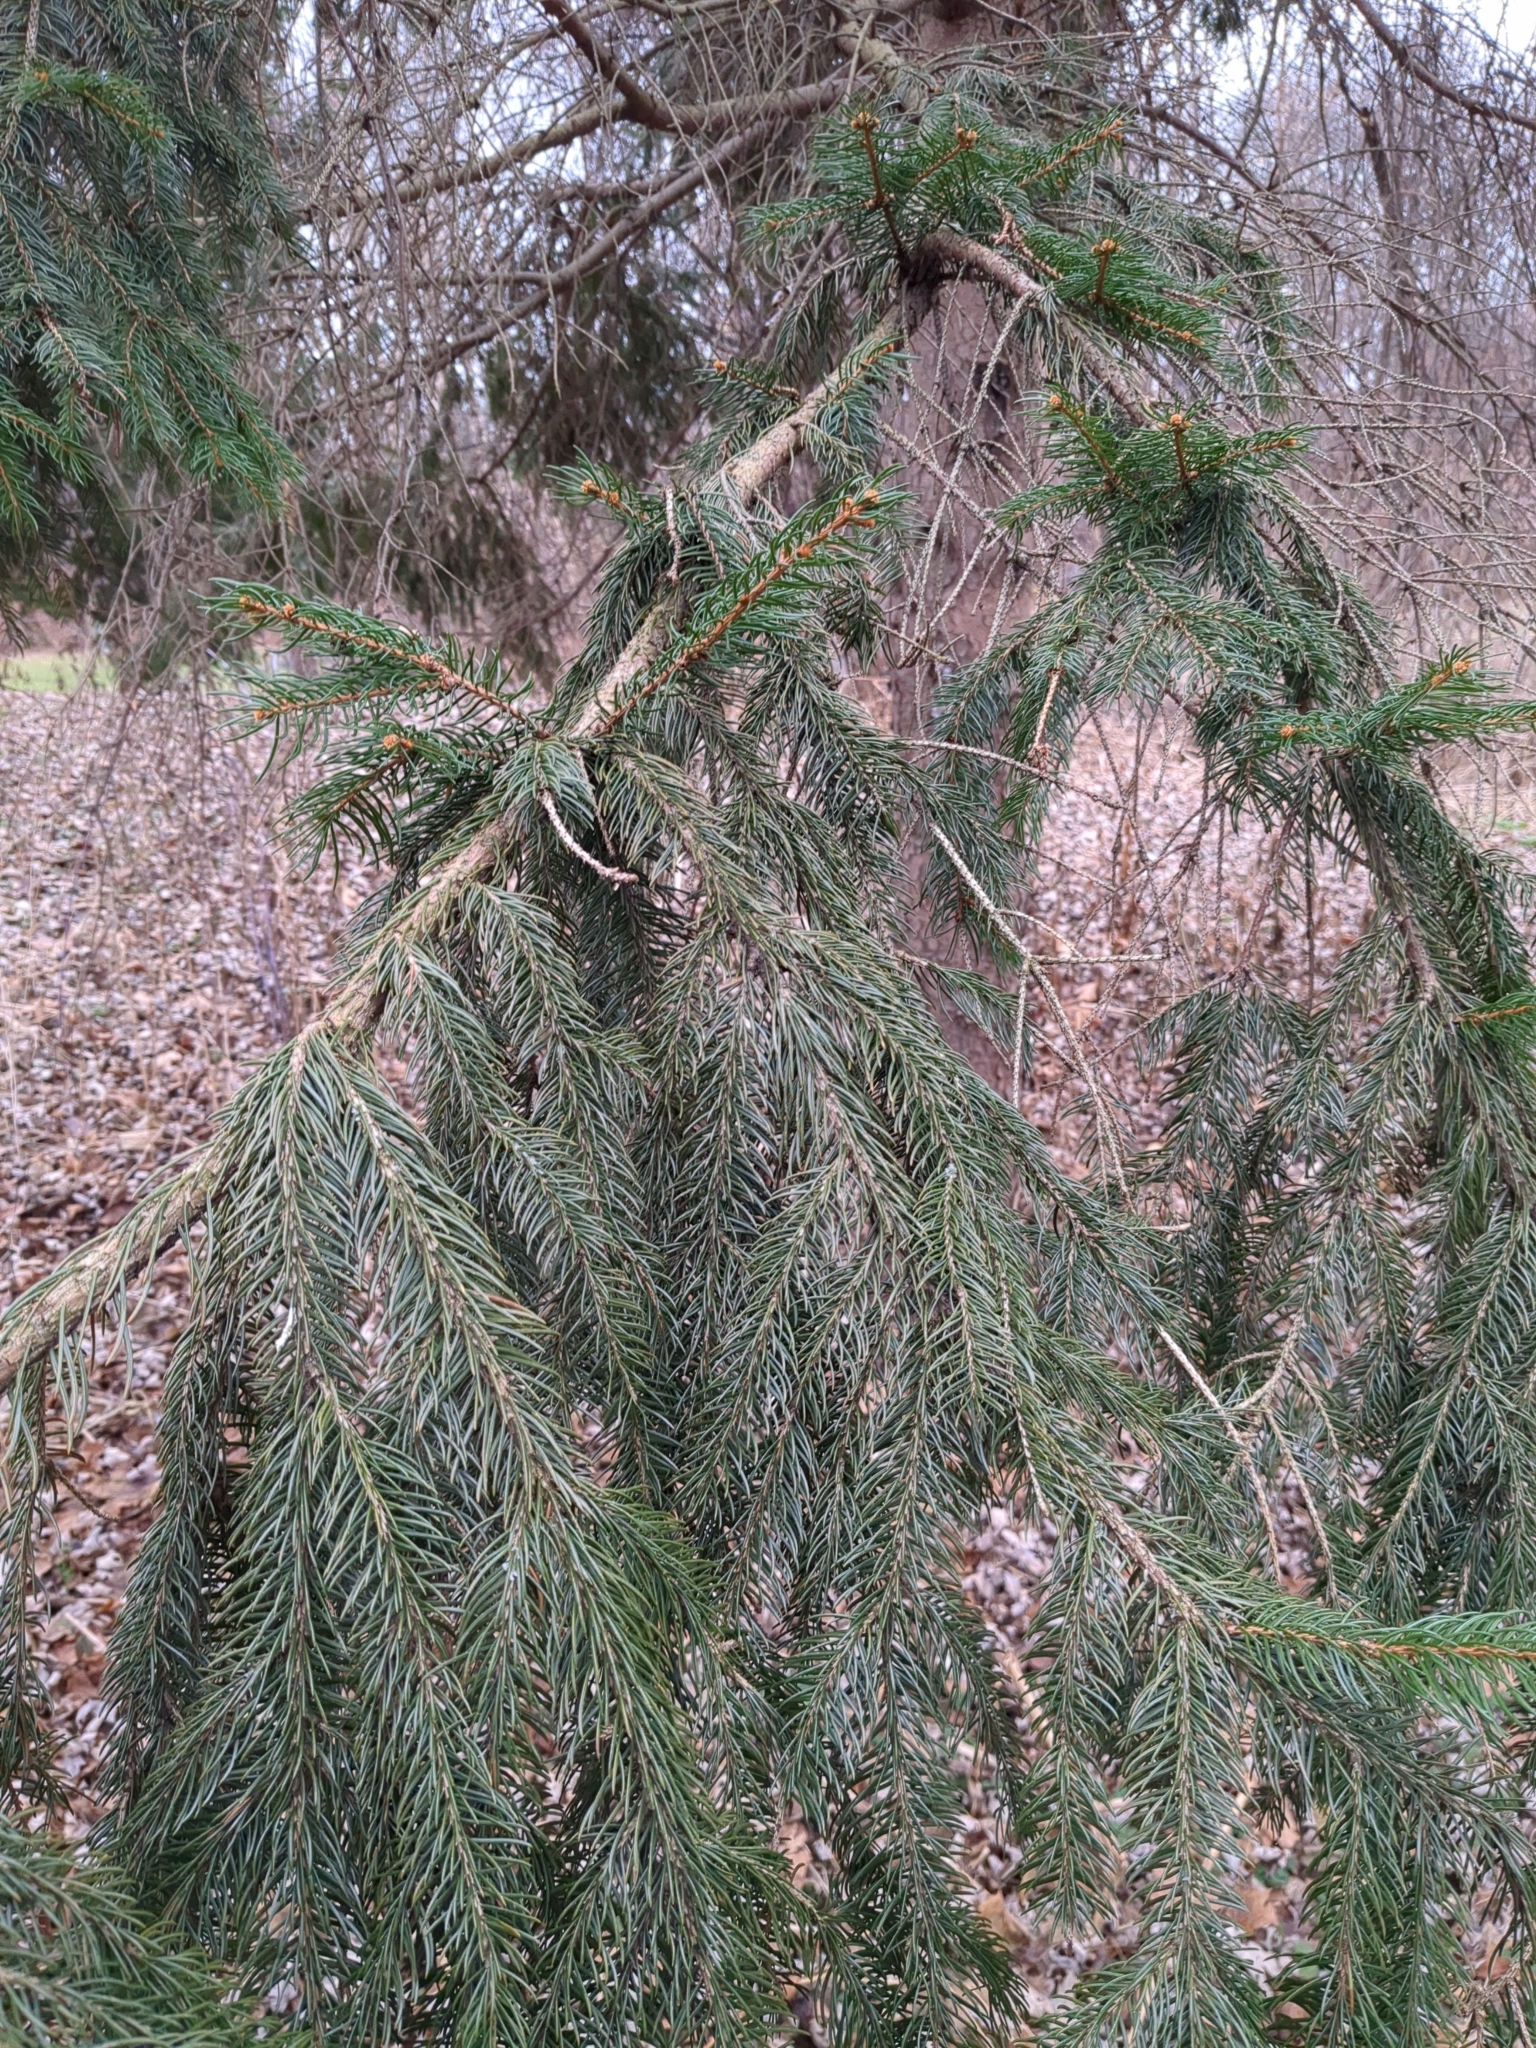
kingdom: Plantae
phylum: Tracheophyta
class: Pinopsida
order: Pinales
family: Pinaceae
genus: Picea
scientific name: Picea abies
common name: Norway spruce
